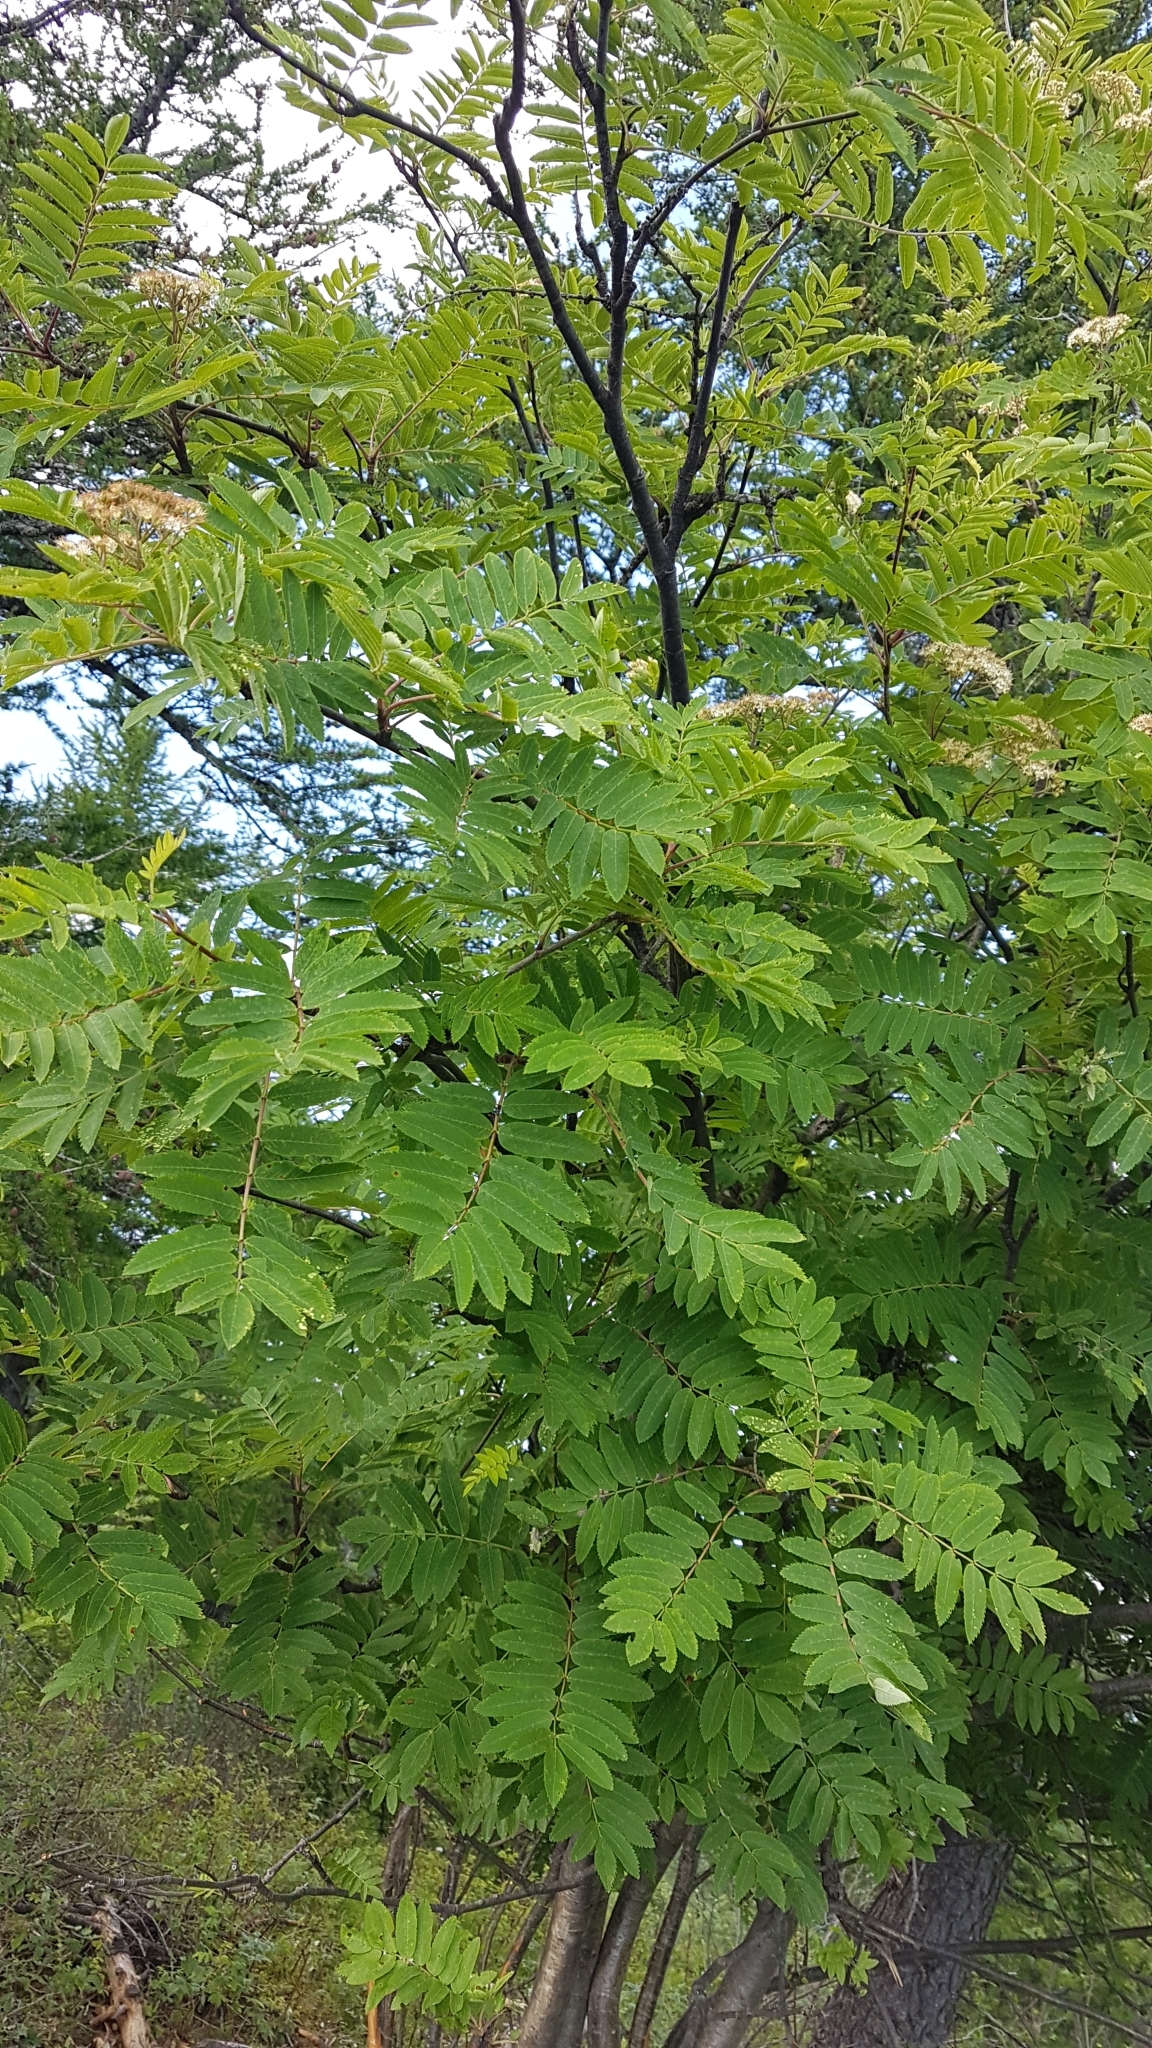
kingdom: Plantae
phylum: Tracheophyta
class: Magnoliopsida
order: Rosales
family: Rosaceae
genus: Sorbus
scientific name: Sorbus aucuparia
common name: Rowan
